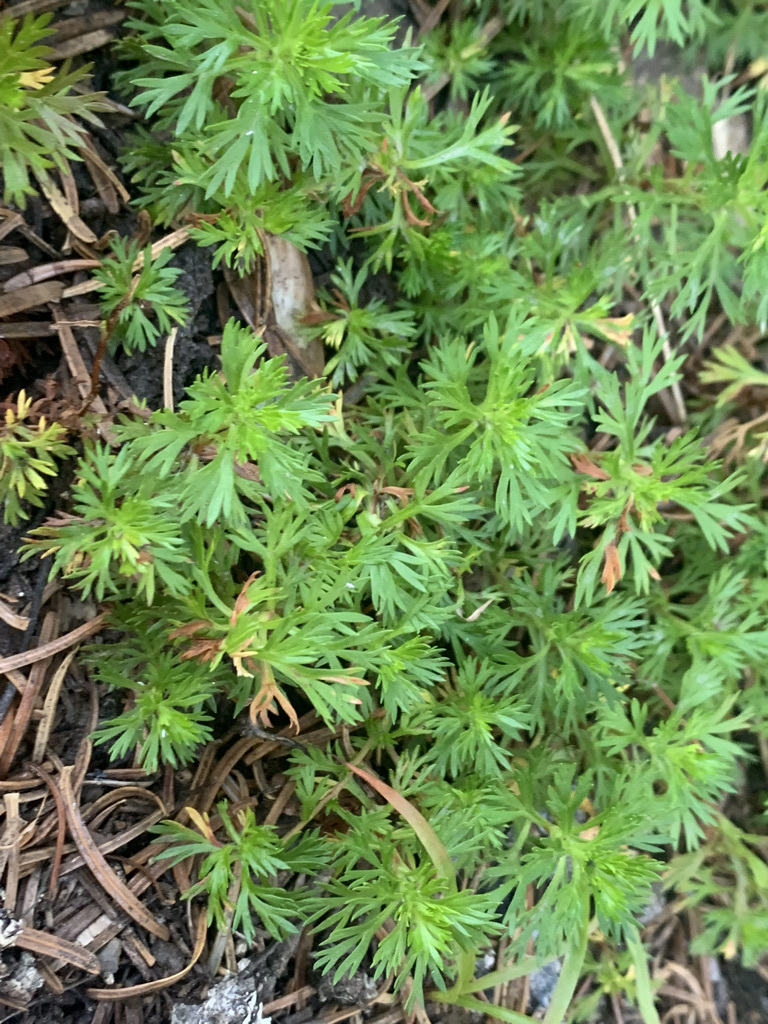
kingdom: Plantae
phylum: Tracheophyta
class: Magnoliopsida
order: Rosales
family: Rosaceae
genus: Luetkea
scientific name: Luetkea pectinata
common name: Partridgefoot
